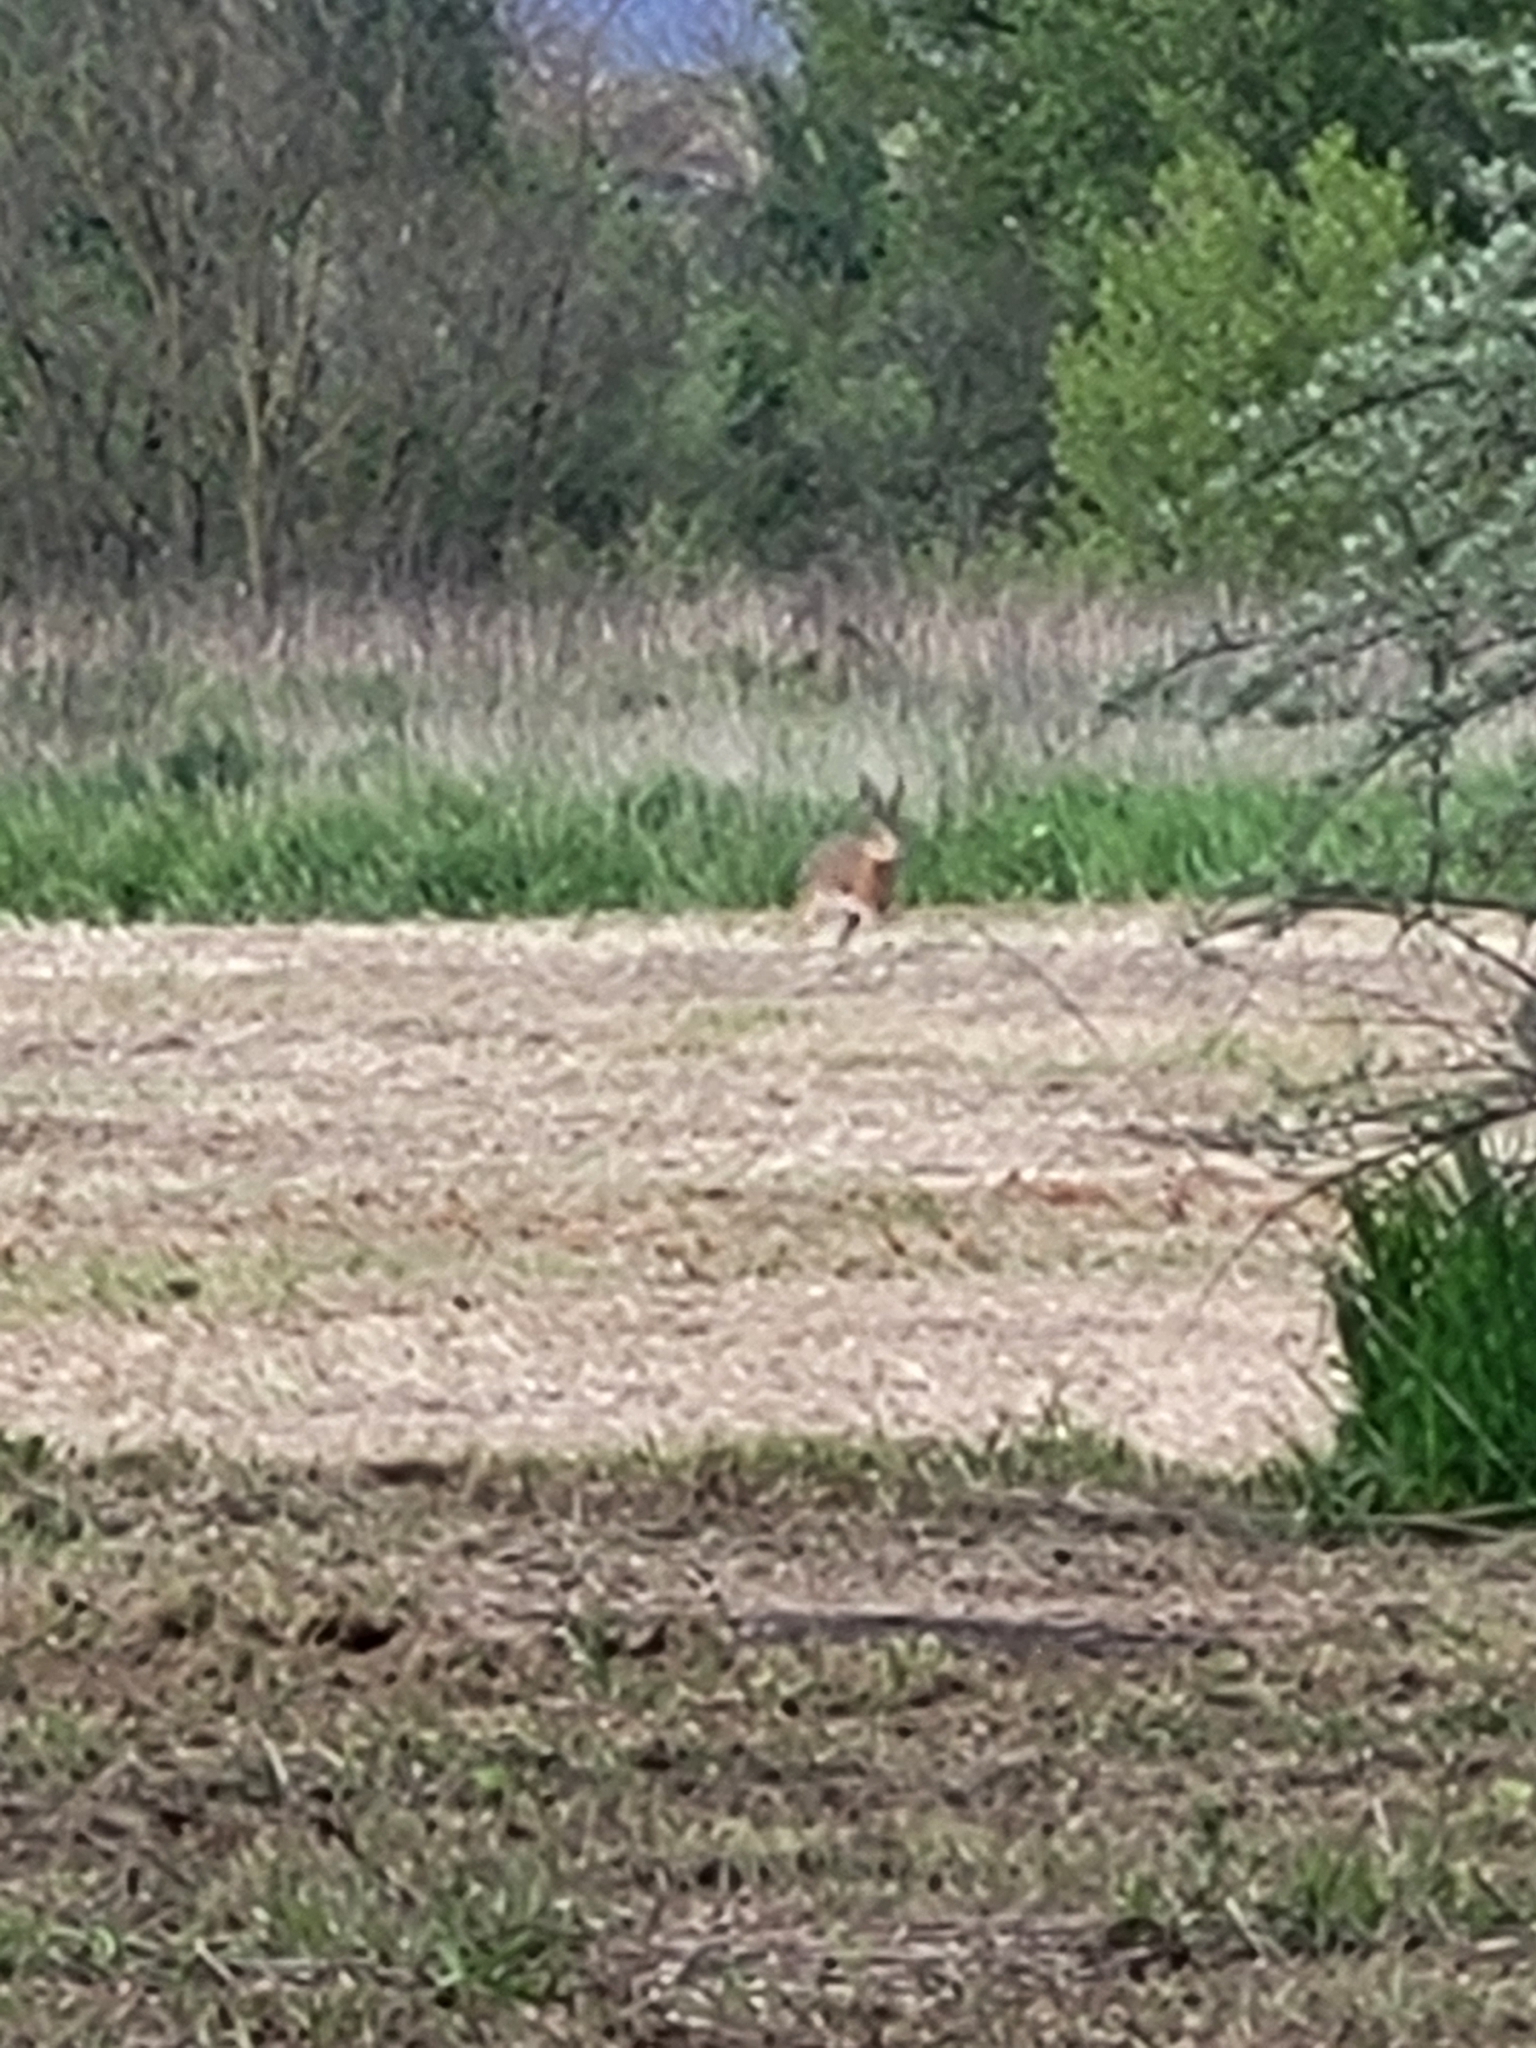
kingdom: Animalia
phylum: Chordata
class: Mammalia
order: Lagomorpha
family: Leporidae
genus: Lepus
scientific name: Lepus europaeus
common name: European hare
